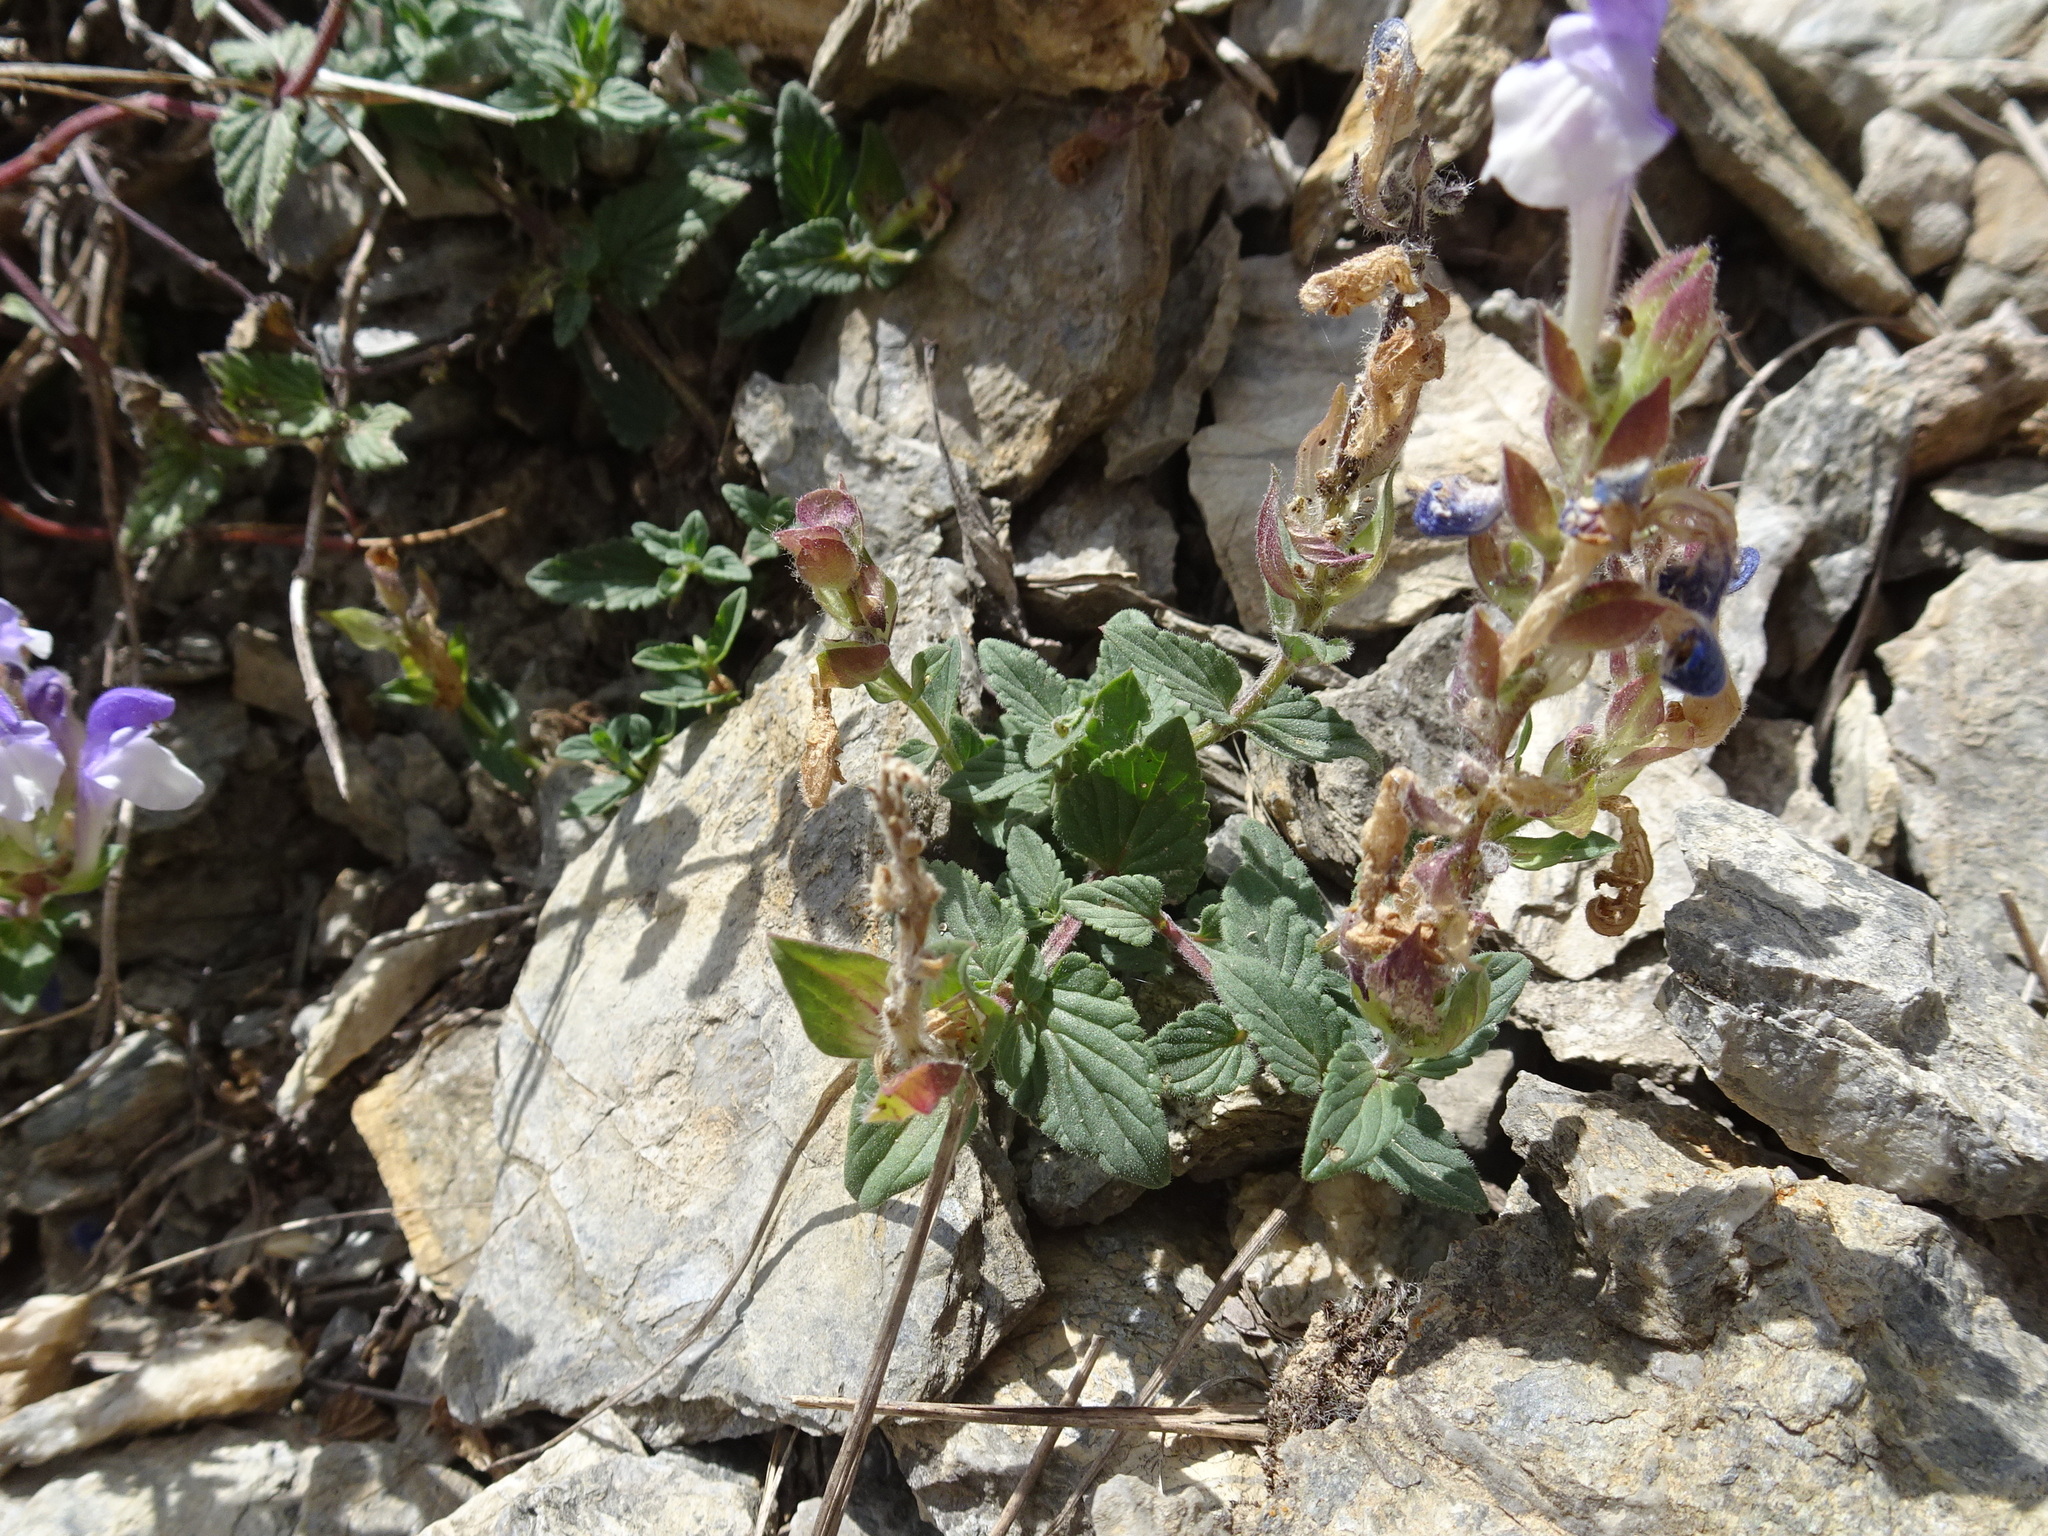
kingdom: Plantae
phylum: Tracheophyta
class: Magnoliopsida
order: Lamiales
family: Lamiaceae
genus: Scutellaria
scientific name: Scutellaria alpina
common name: Alpine scullcap
